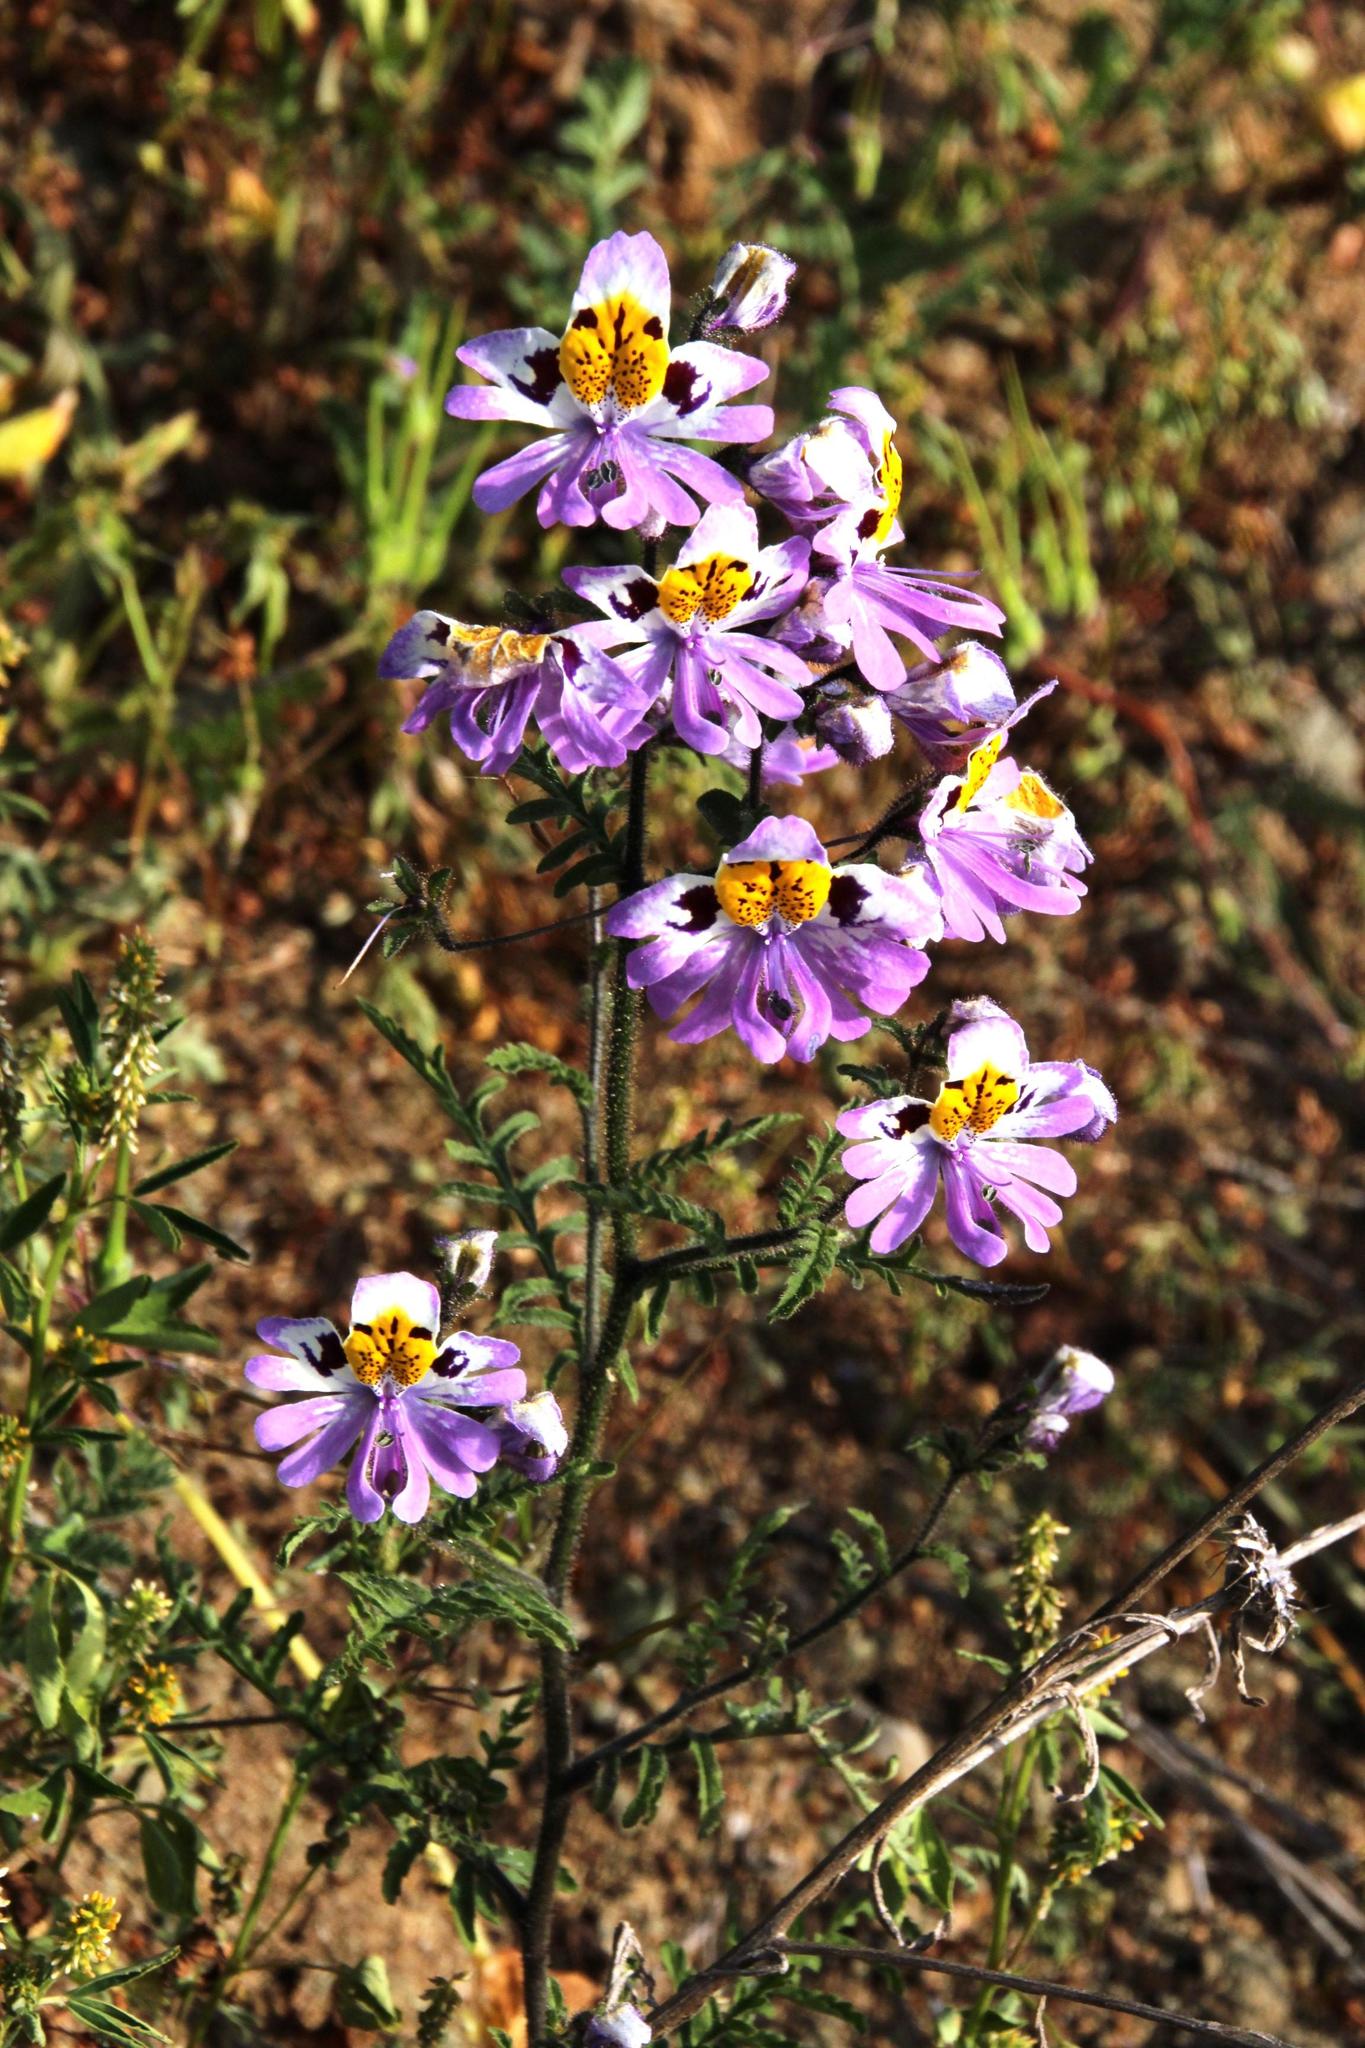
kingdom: Plantae
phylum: Tracheophyta
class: Magnoliopsida
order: Solanales
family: Solanaceae
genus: Schizanthus
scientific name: Schizanthus litoralis
